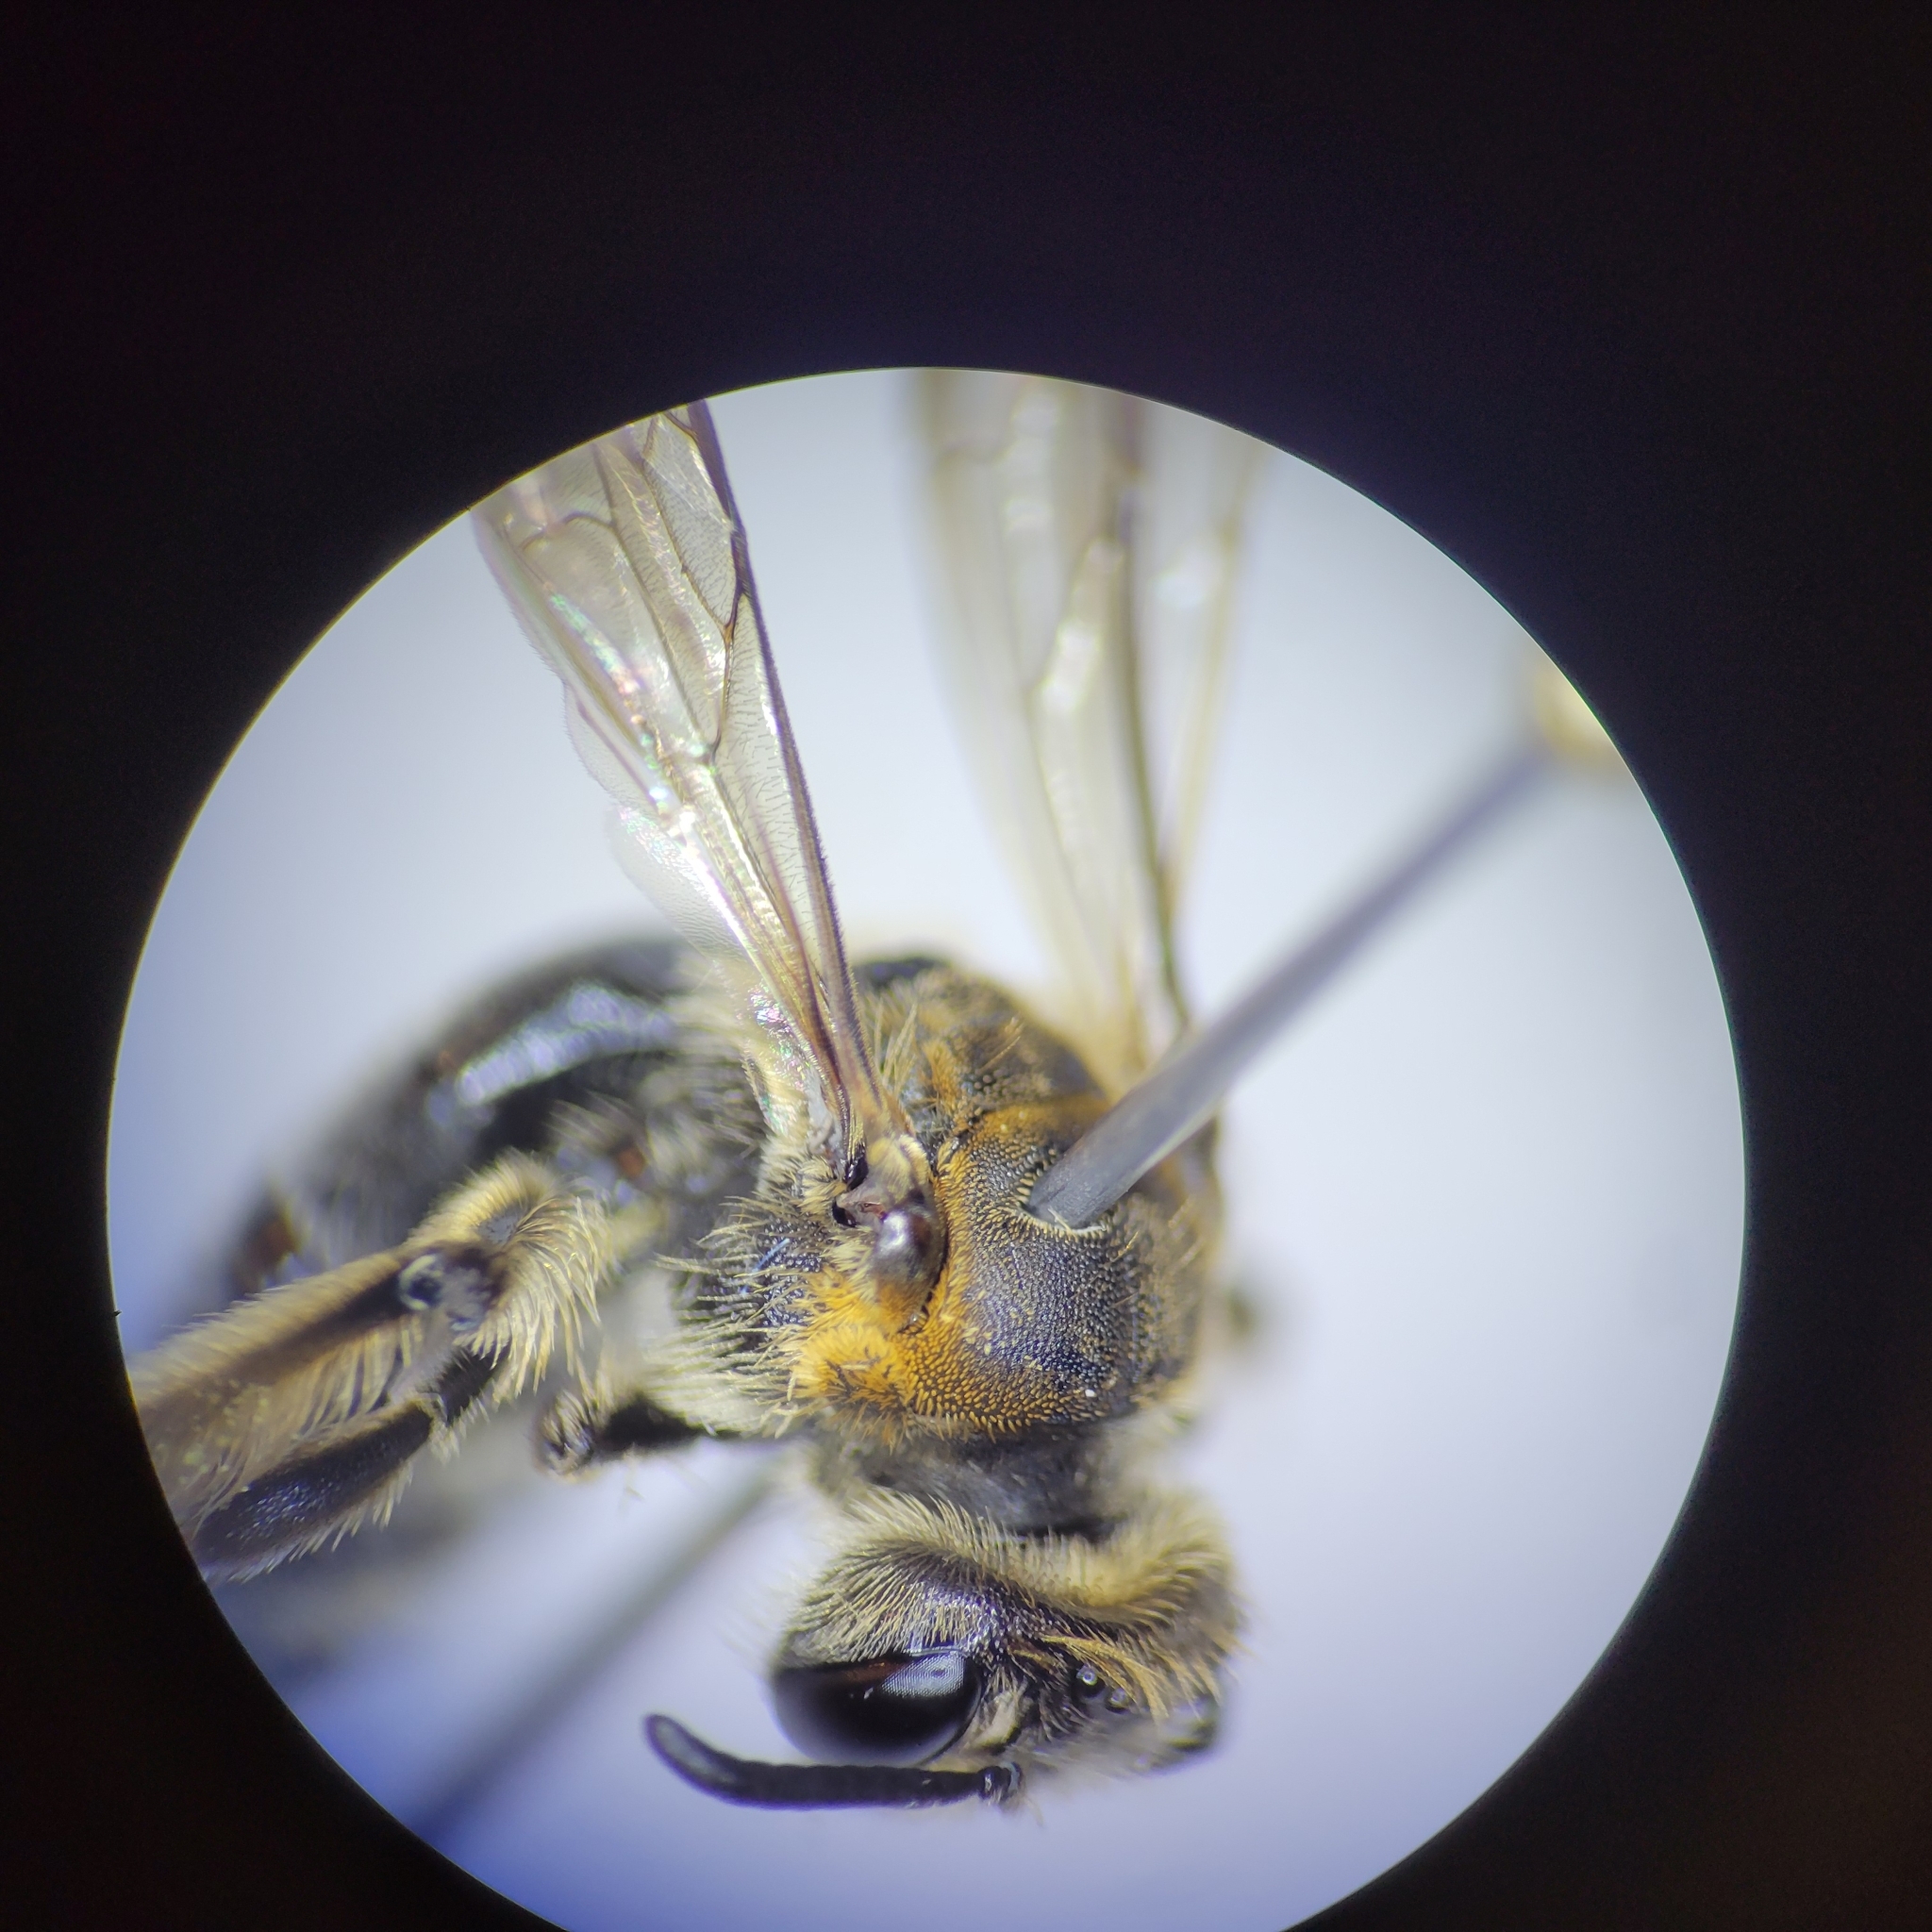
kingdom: Animalia
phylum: Arthropoda
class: Insecta
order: Hymenoptera
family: Andrenidae
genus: Andrena
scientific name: Andrena alleghaniensis
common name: Allegheny mining bee
